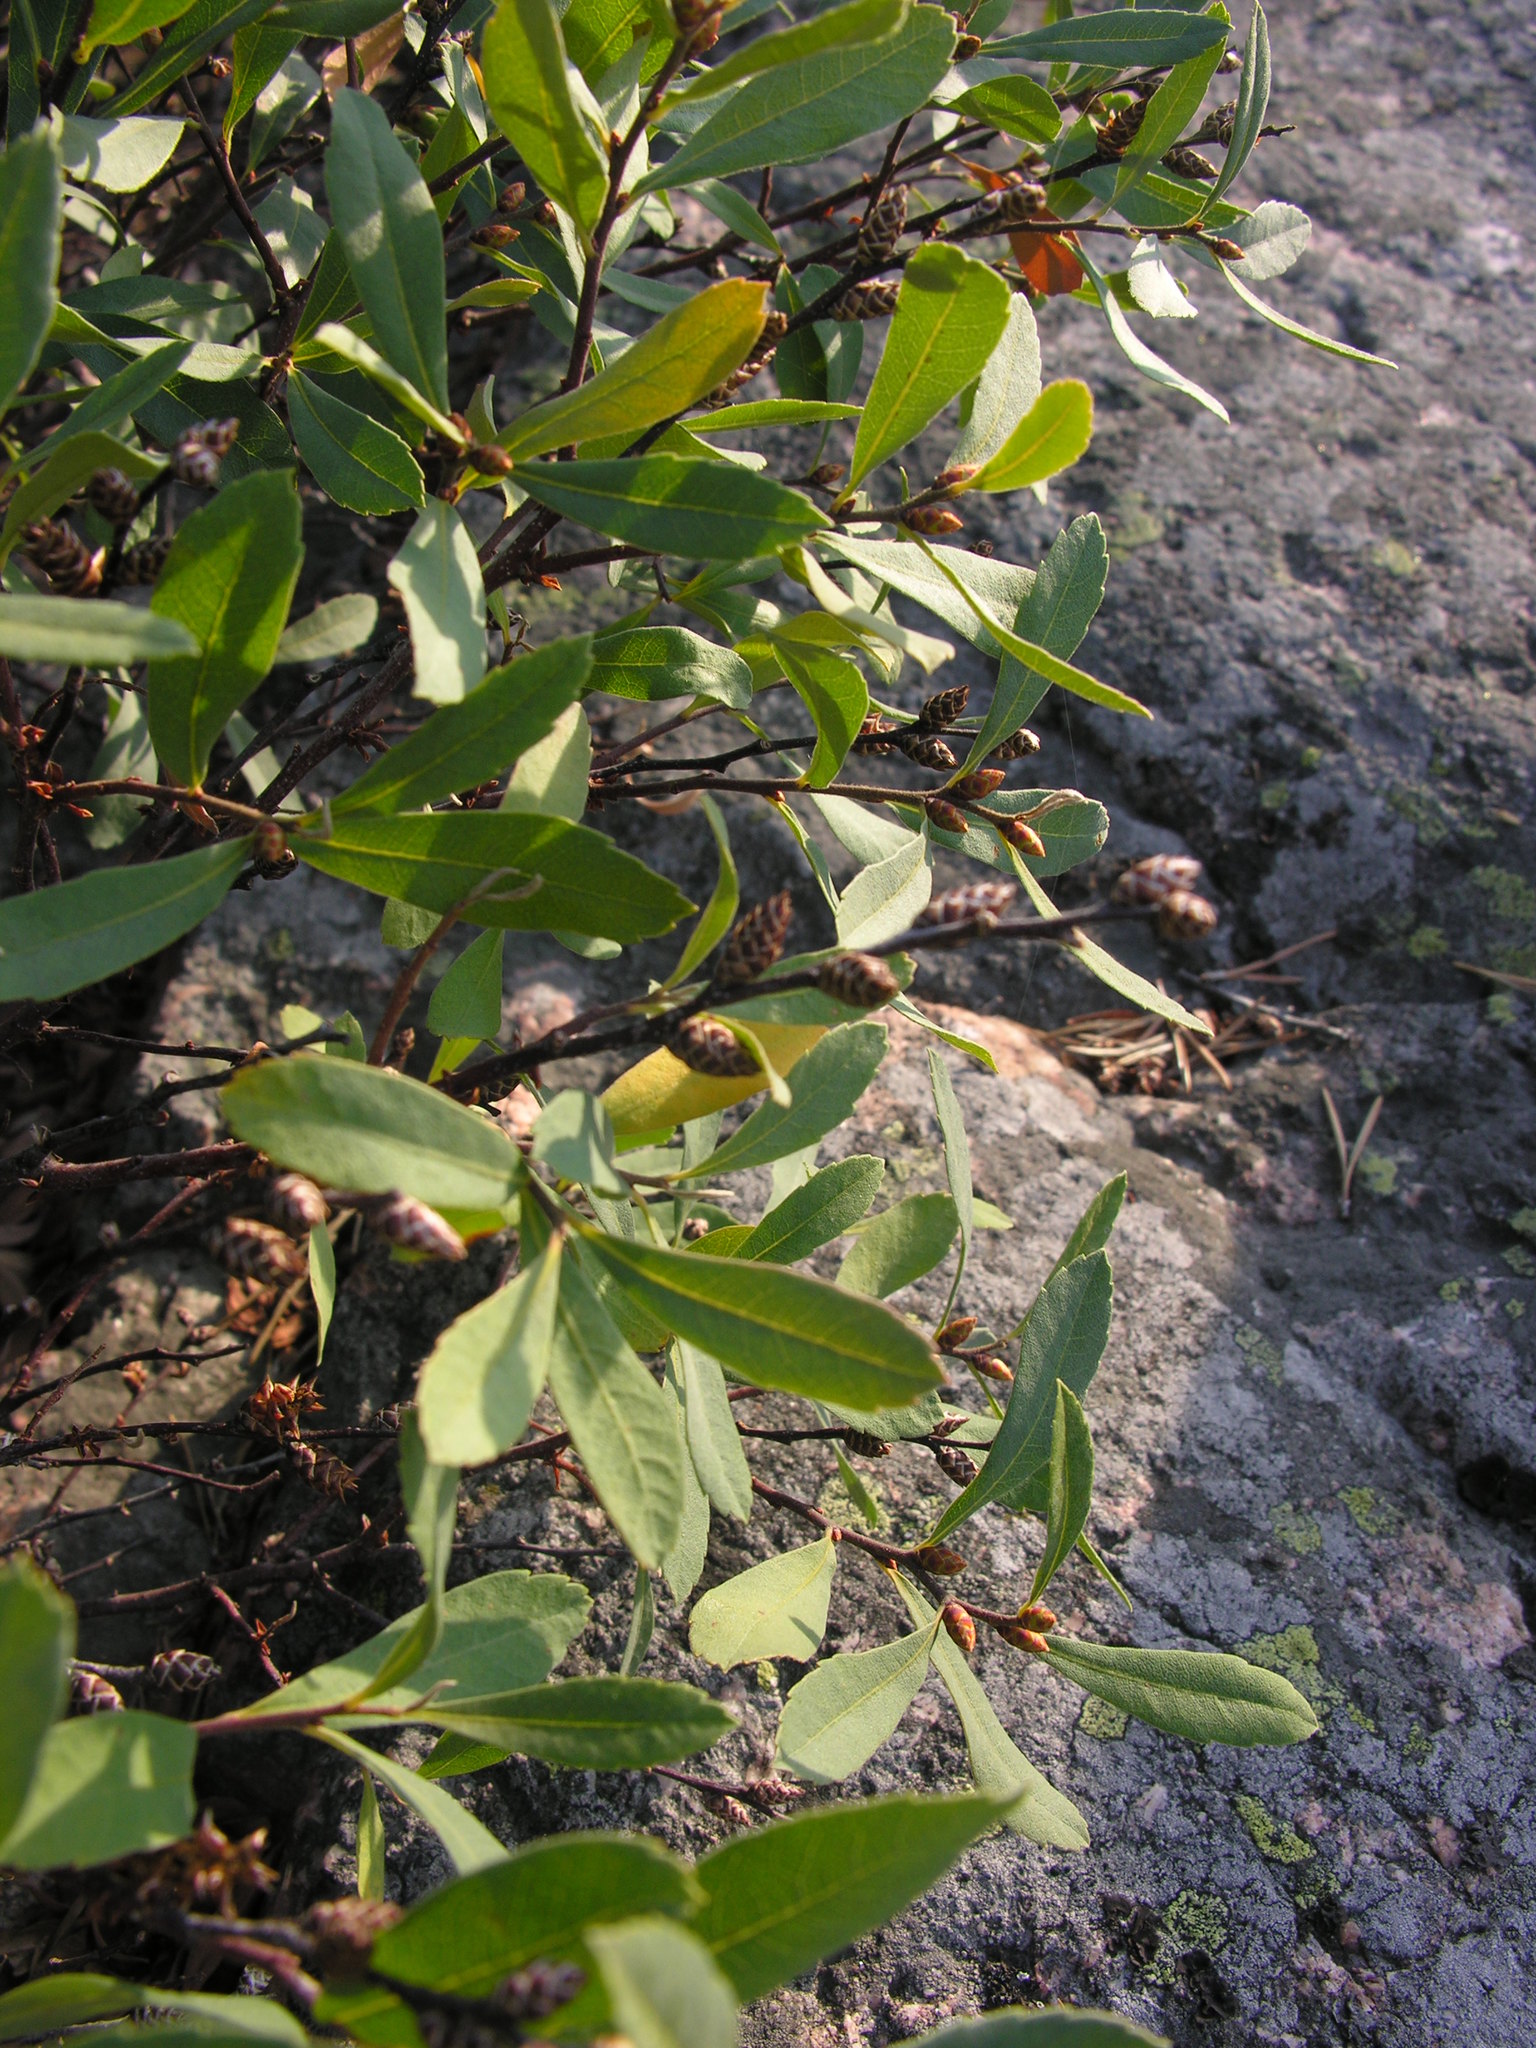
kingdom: Plantae
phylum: Tracheophyta
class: Magnoliopsida
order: Fagales
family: Myricaceae
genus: Myrica
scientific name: Myrica gale
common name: Sweet gale
